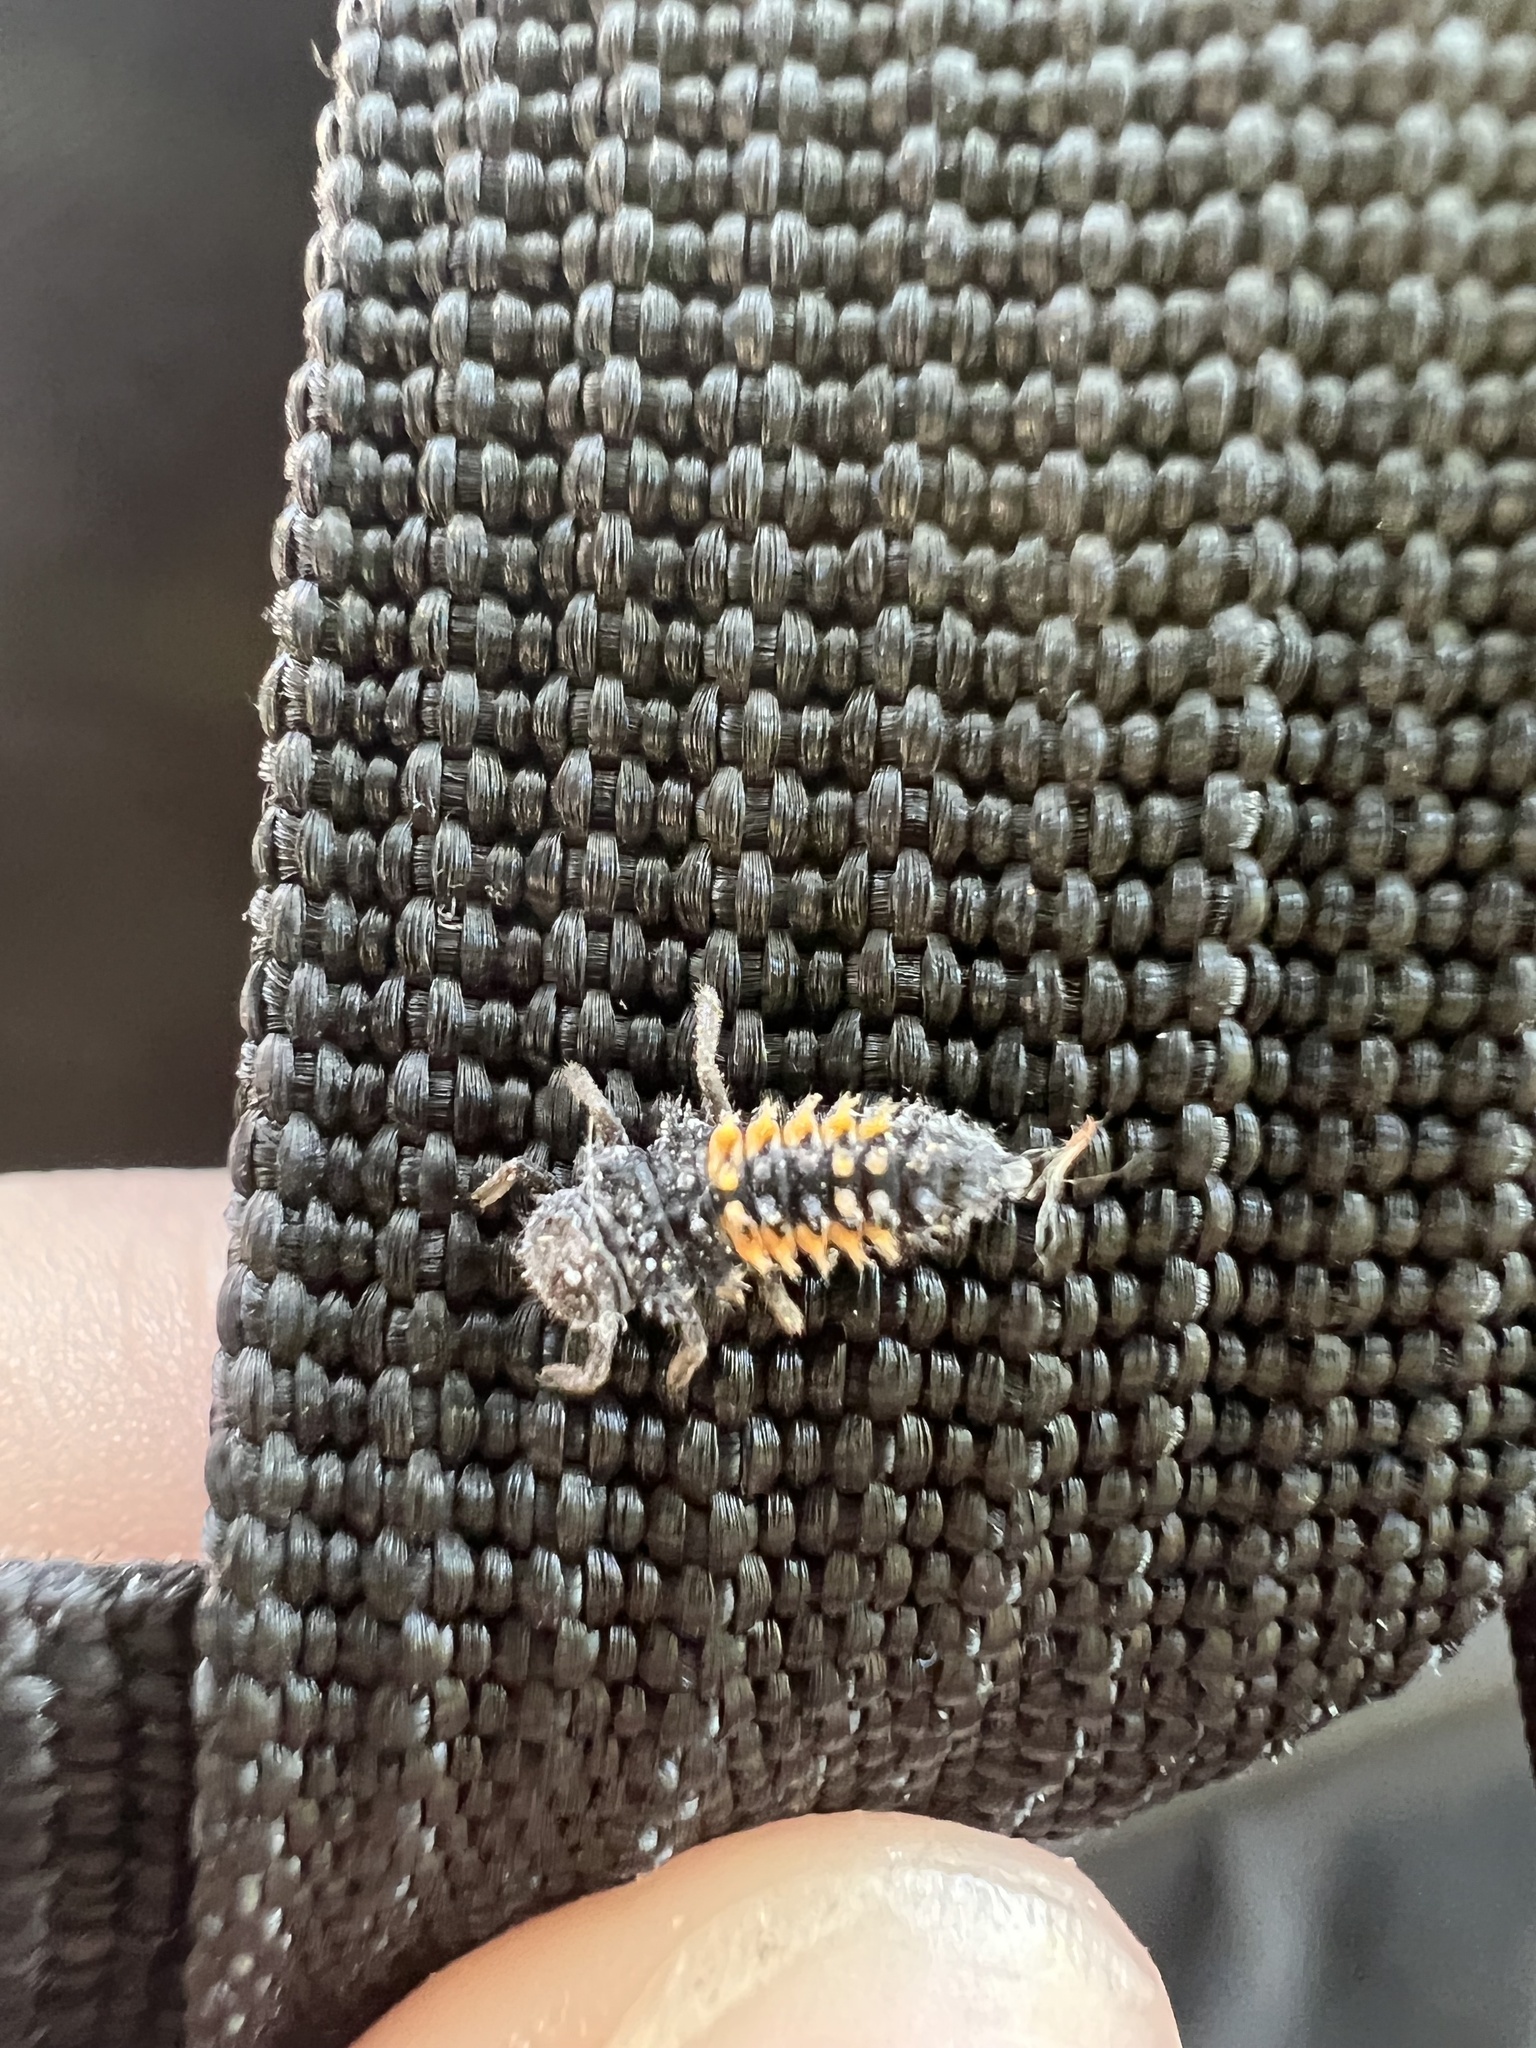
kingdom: Animalia
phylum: Arthropoda
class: Insecta
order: Coleoptera
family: Coccinellidae
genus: Harmonia
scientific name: Harmonia axyridis
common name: Harlequin ladybird
